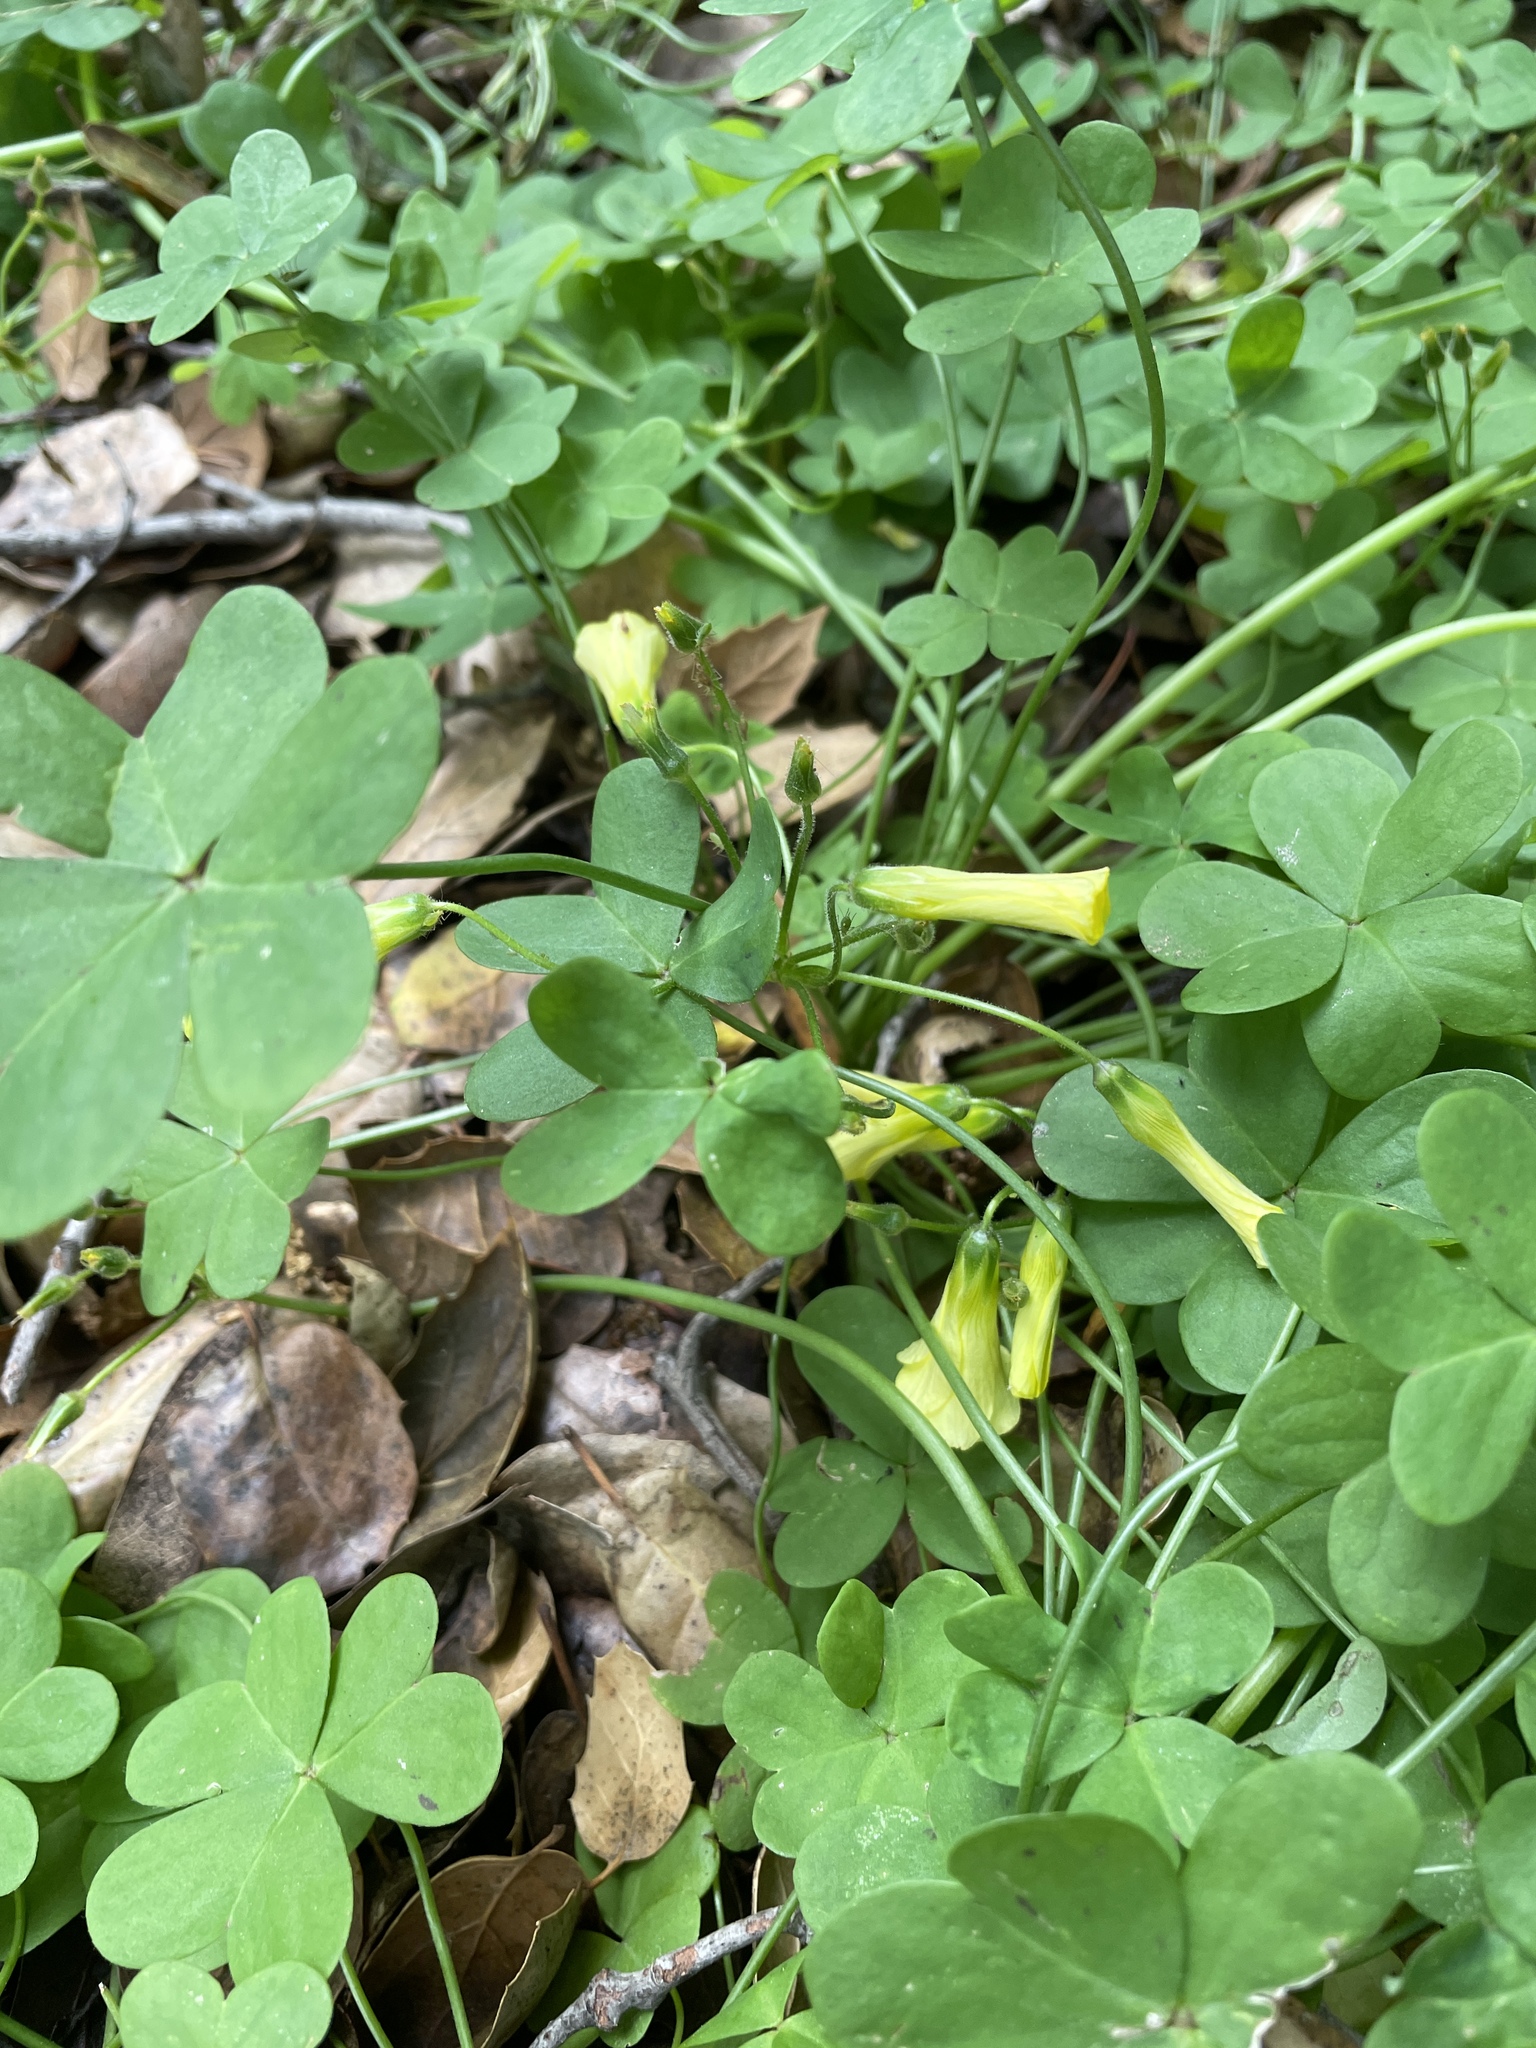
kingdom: Plantae
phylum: Tracheophyta
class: Magnoliopsida
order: Oxalidales
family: Oxalidaceae
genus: Oxalis
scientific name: Oxalis pes-caprae
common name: Bermuda-buttercup
